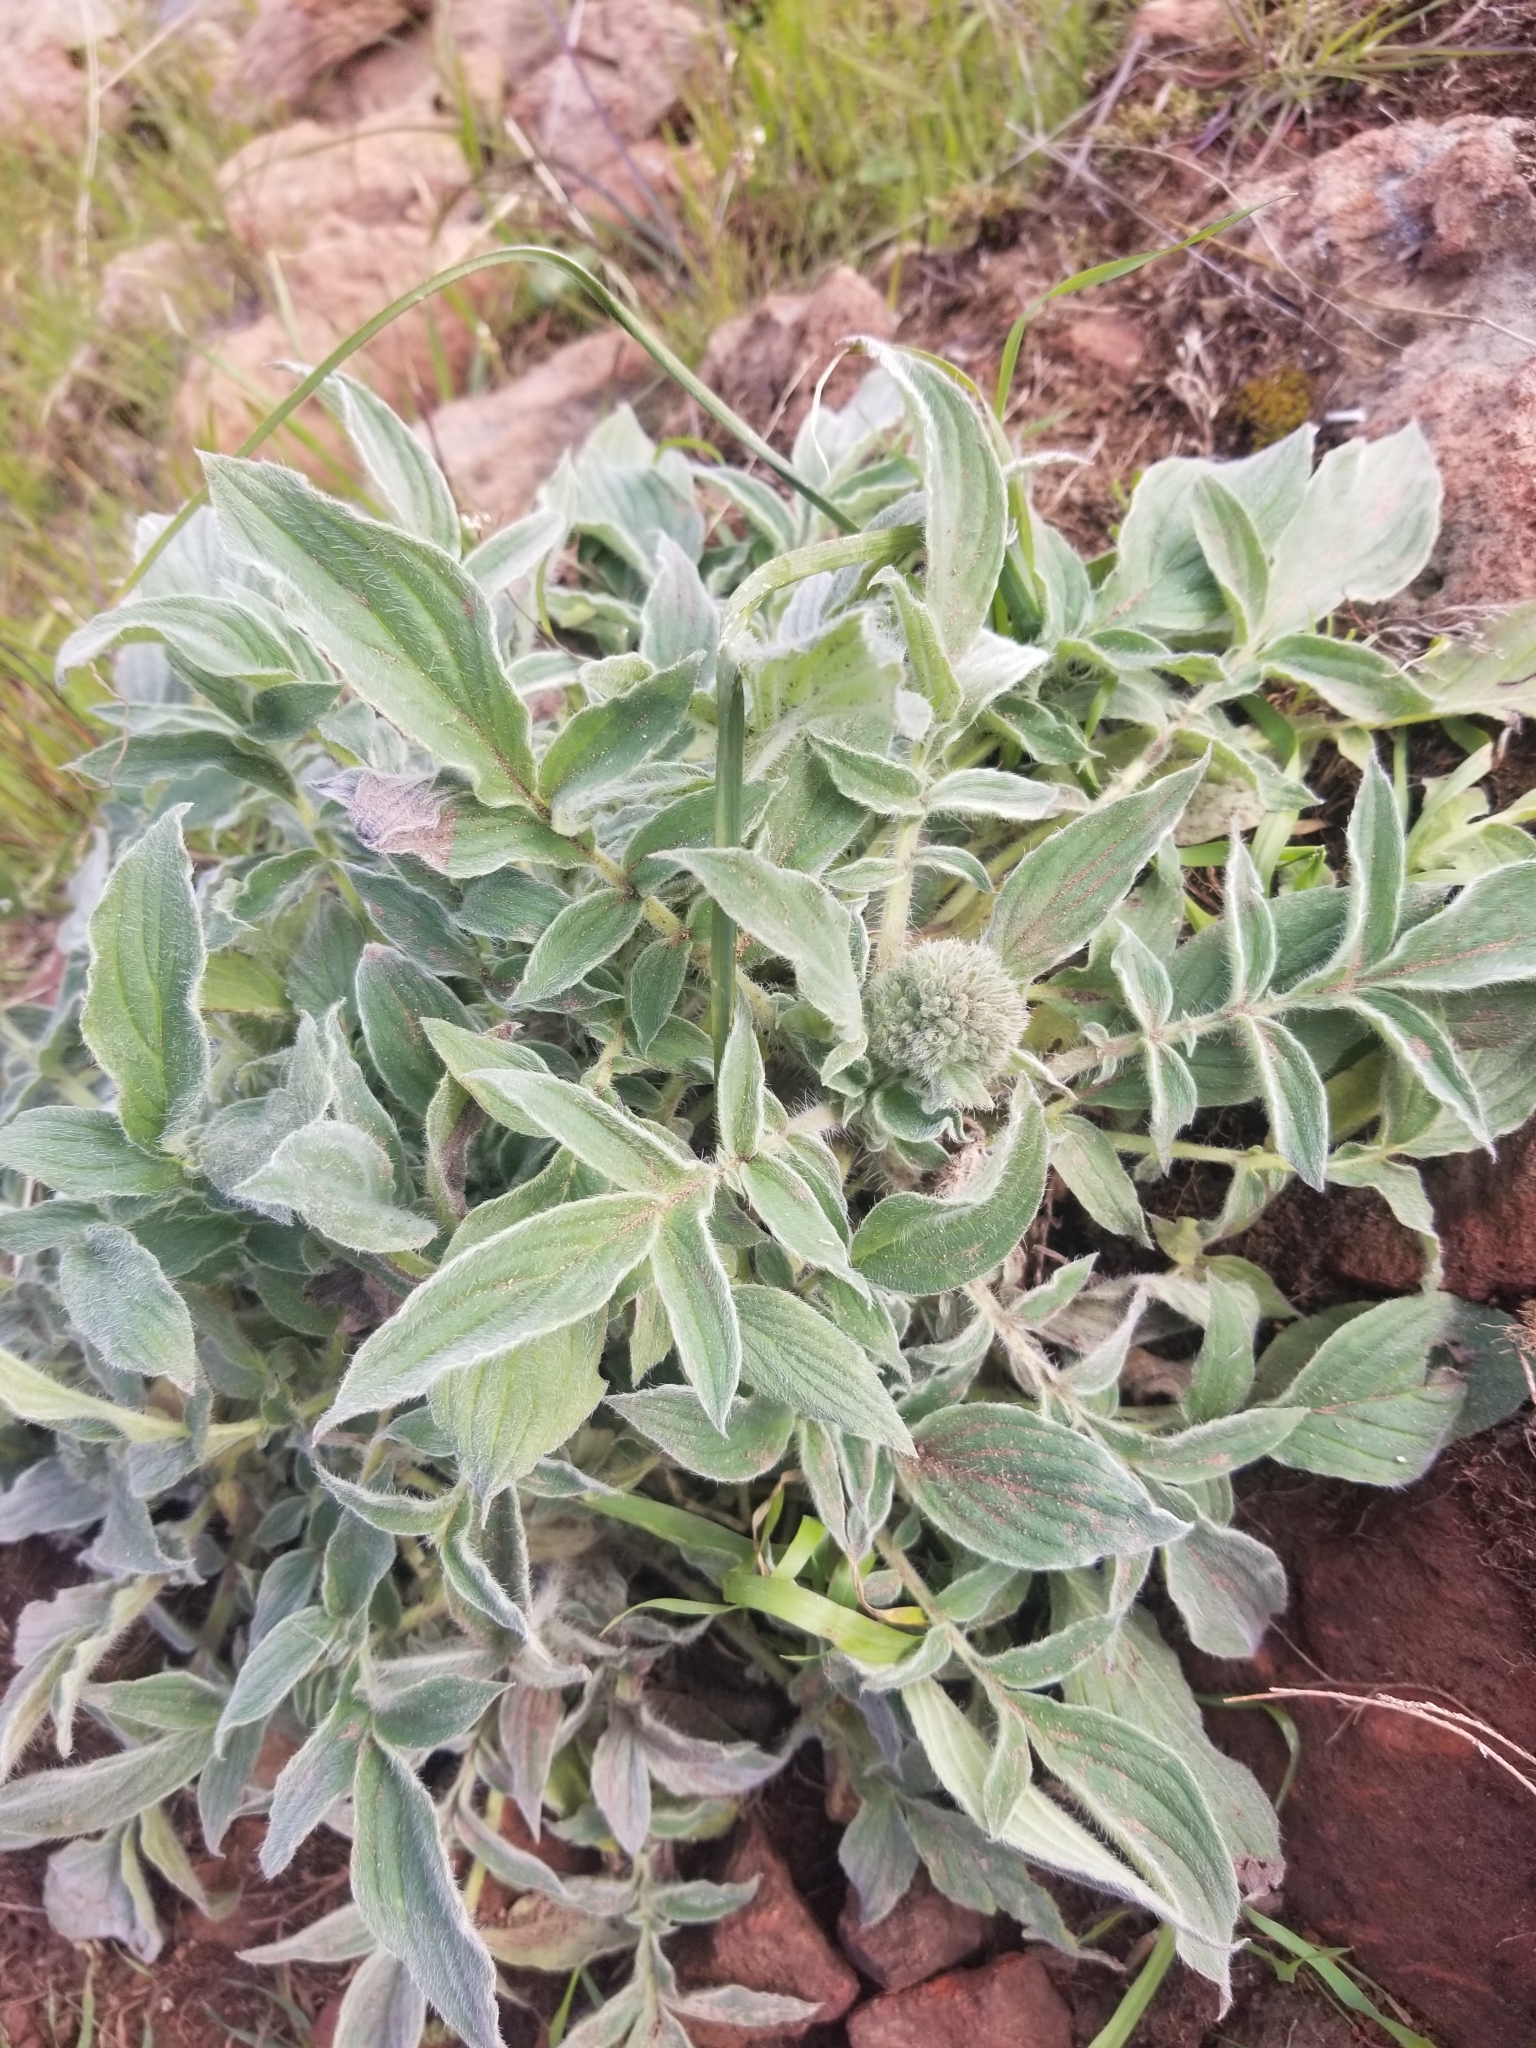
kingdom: Plantae
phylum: Tracheophyta
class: Magnoliopsida
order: Boraginales
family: Hydrophyllaceae
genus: Phacelia
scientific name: Phacelia imbricata
